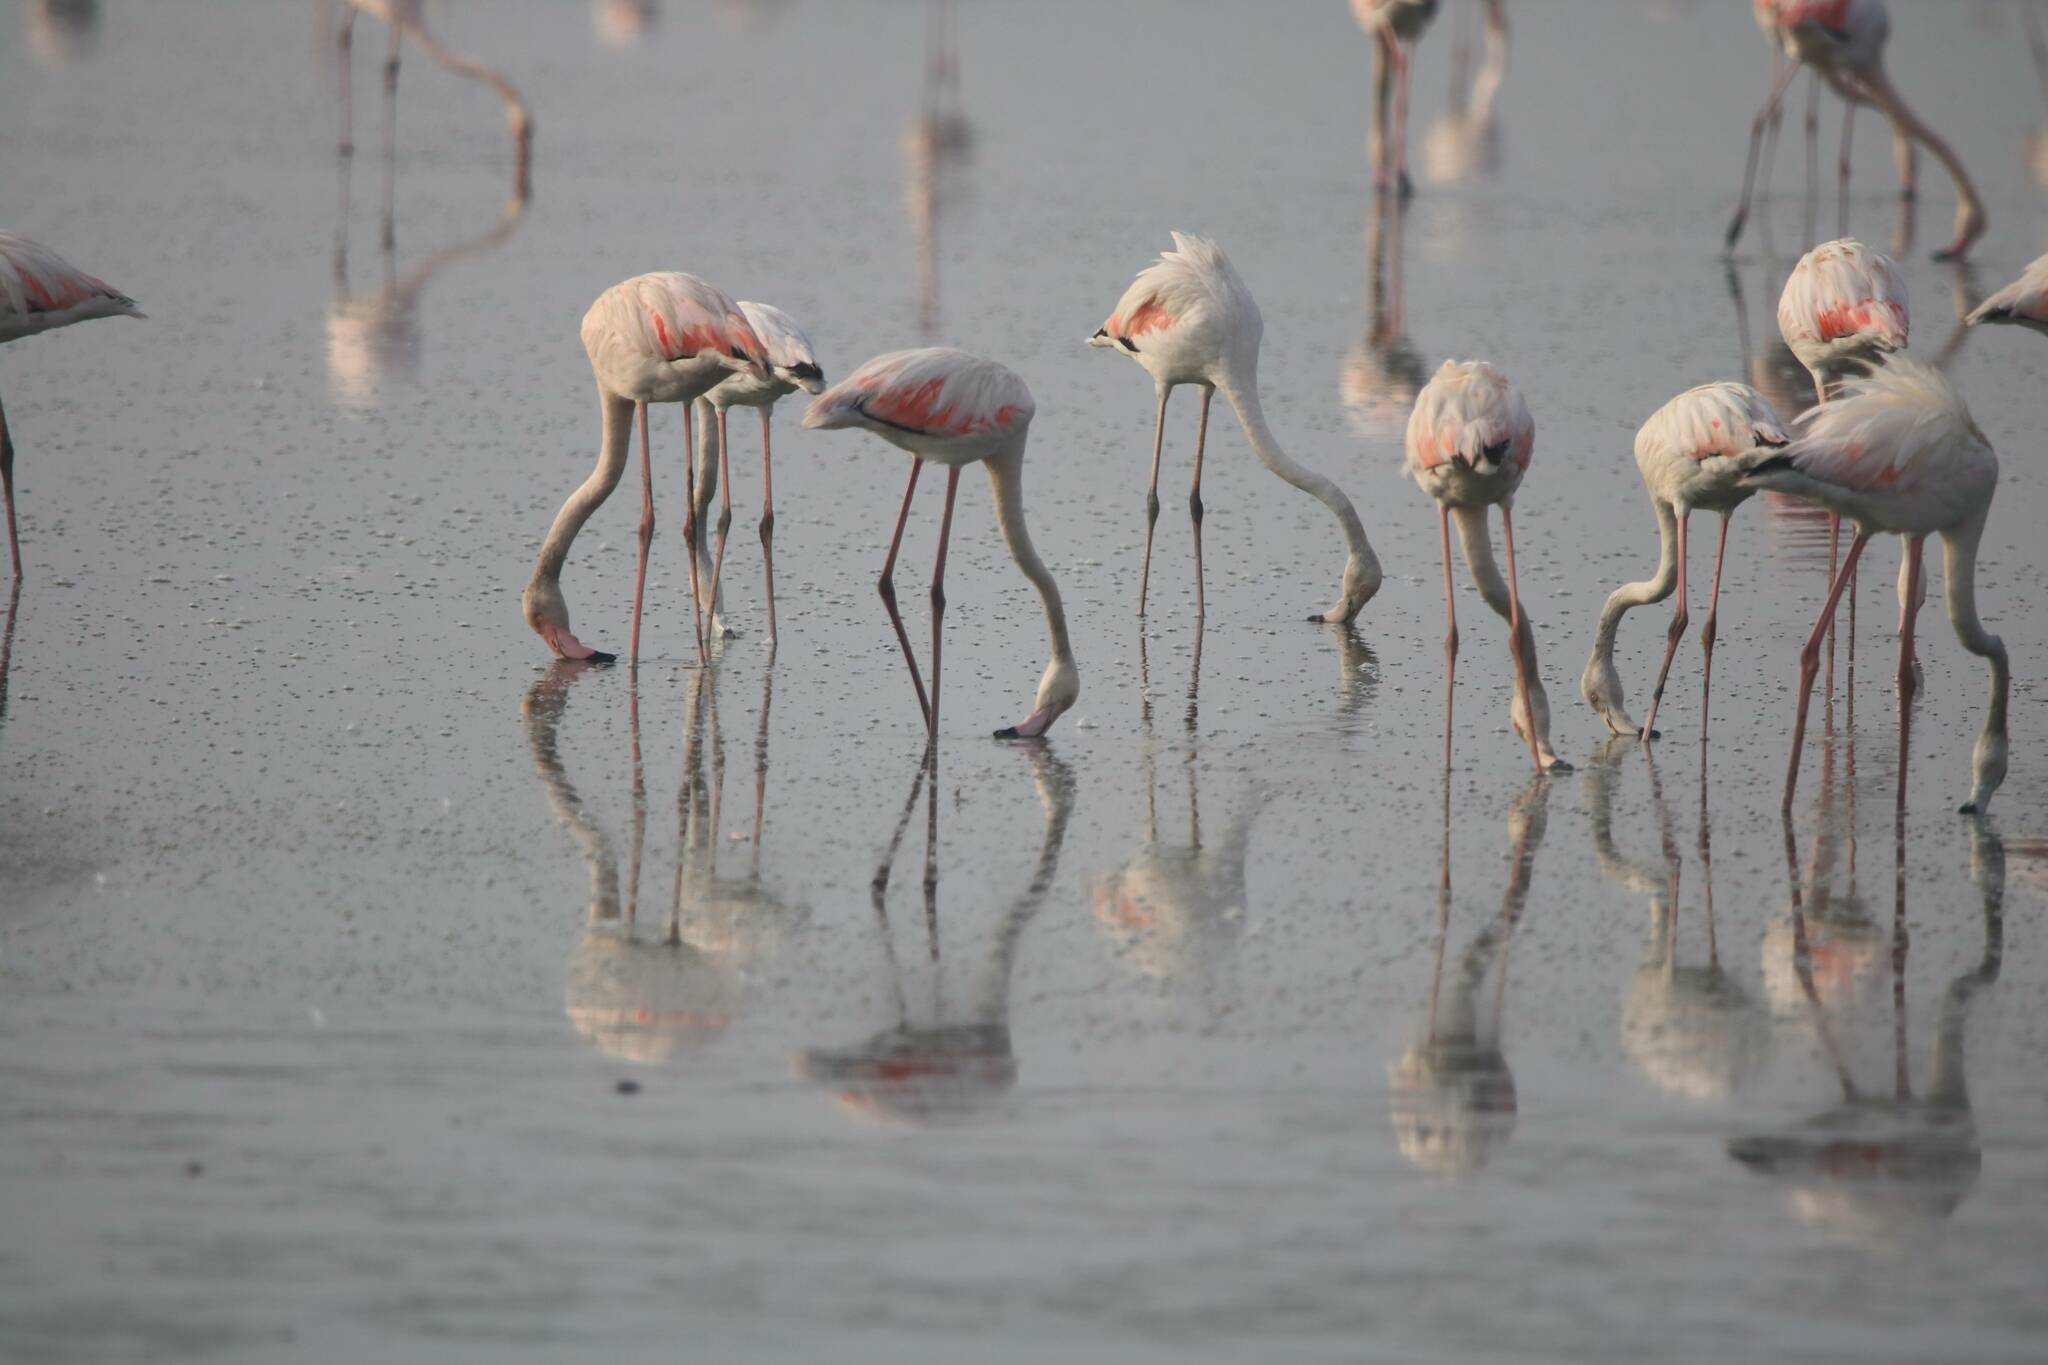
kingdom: Animalia
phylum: Chordata
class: Aves
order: Phoenicopteriformes
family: Phoenicopteridae
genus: Phoenicopterus
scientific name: Phoenicopterus roseus
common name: Greater flamingo
